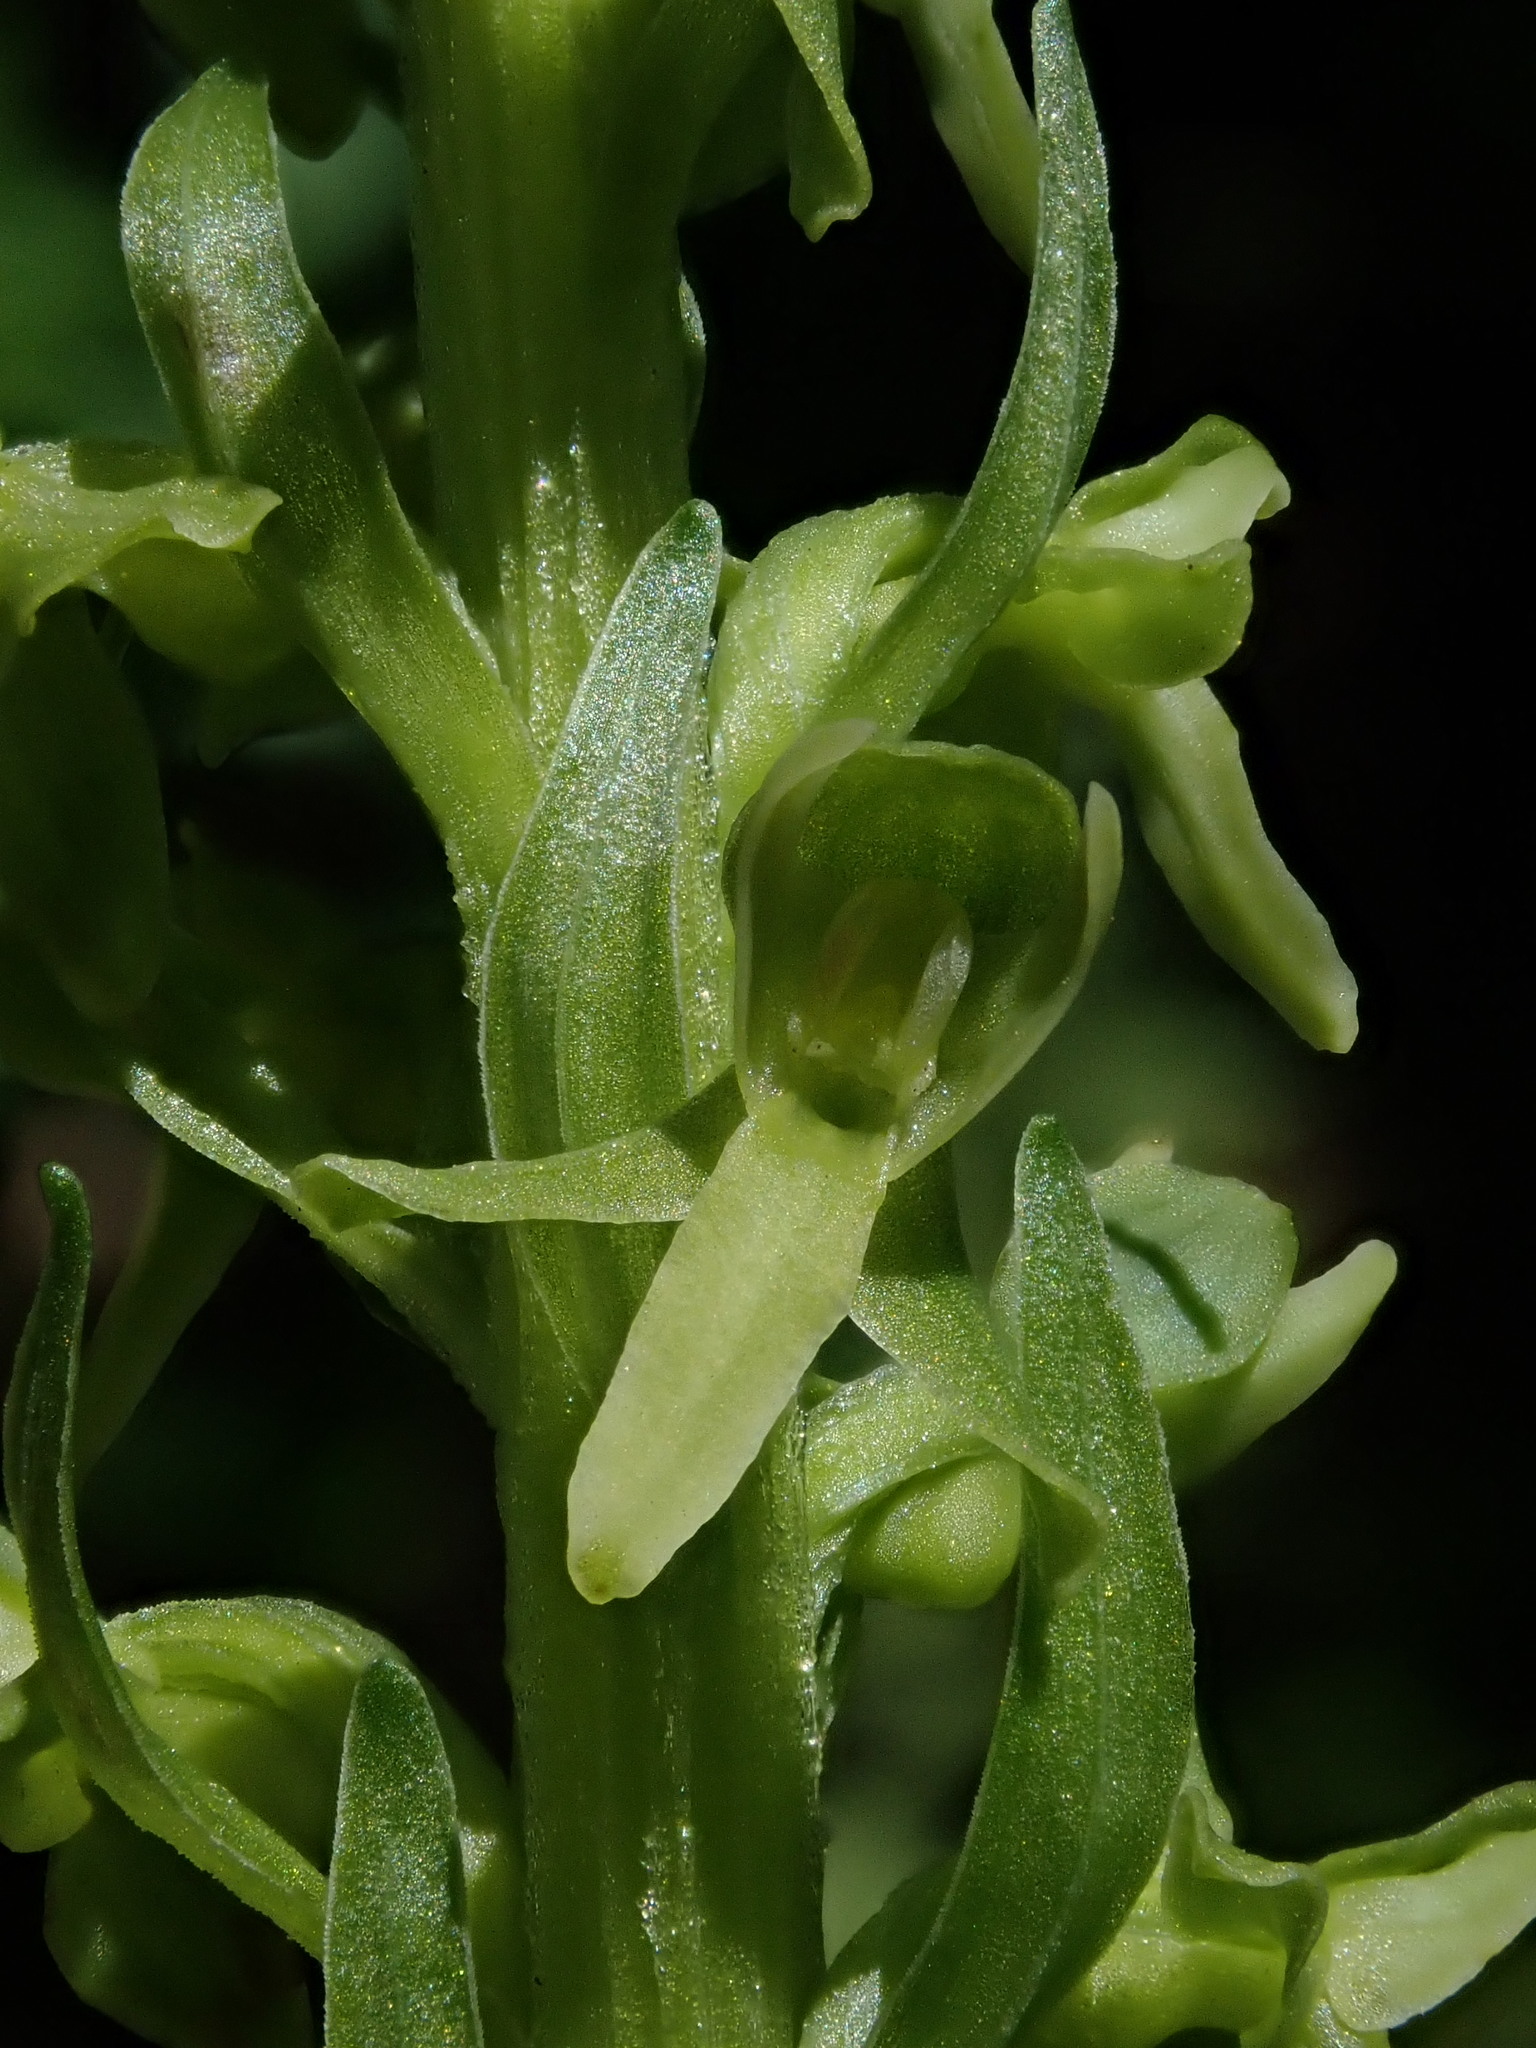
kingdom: Plantae
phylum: Tracheophyta
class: Liliopsida
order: Asparagales
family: Orchidaceae
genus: Platanthera
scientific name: Platanthera stricta
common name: Slender bog orchid
